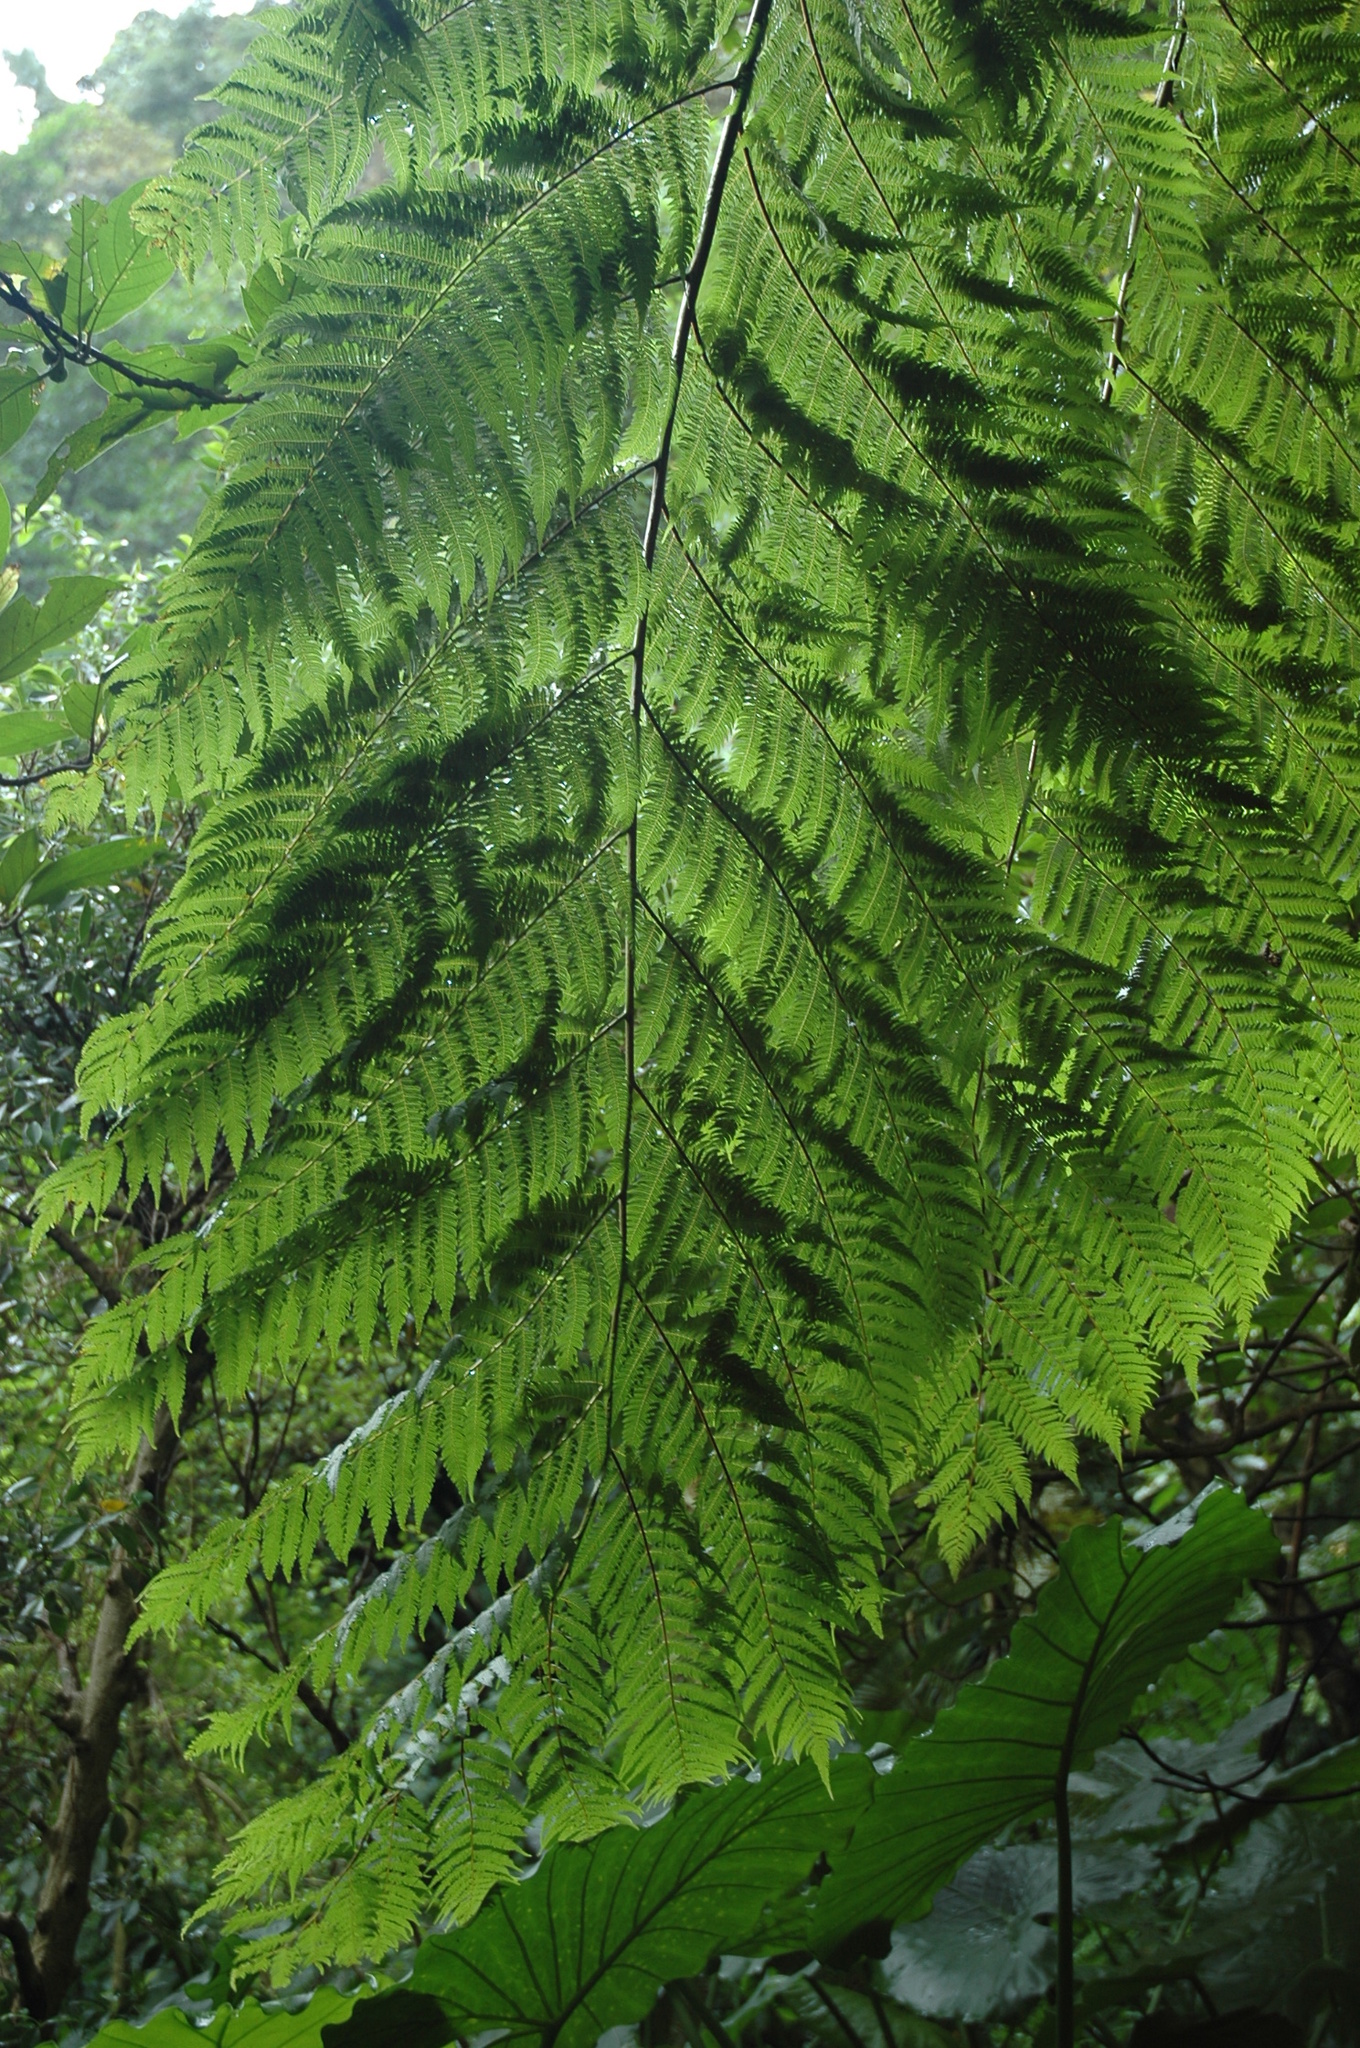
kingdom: Plantae
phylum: Tracheophyta
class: Polypodiopsida
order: Cyatheales
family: Cyatheaceae
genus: Alsophila
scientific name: Alsophila spinulosa
